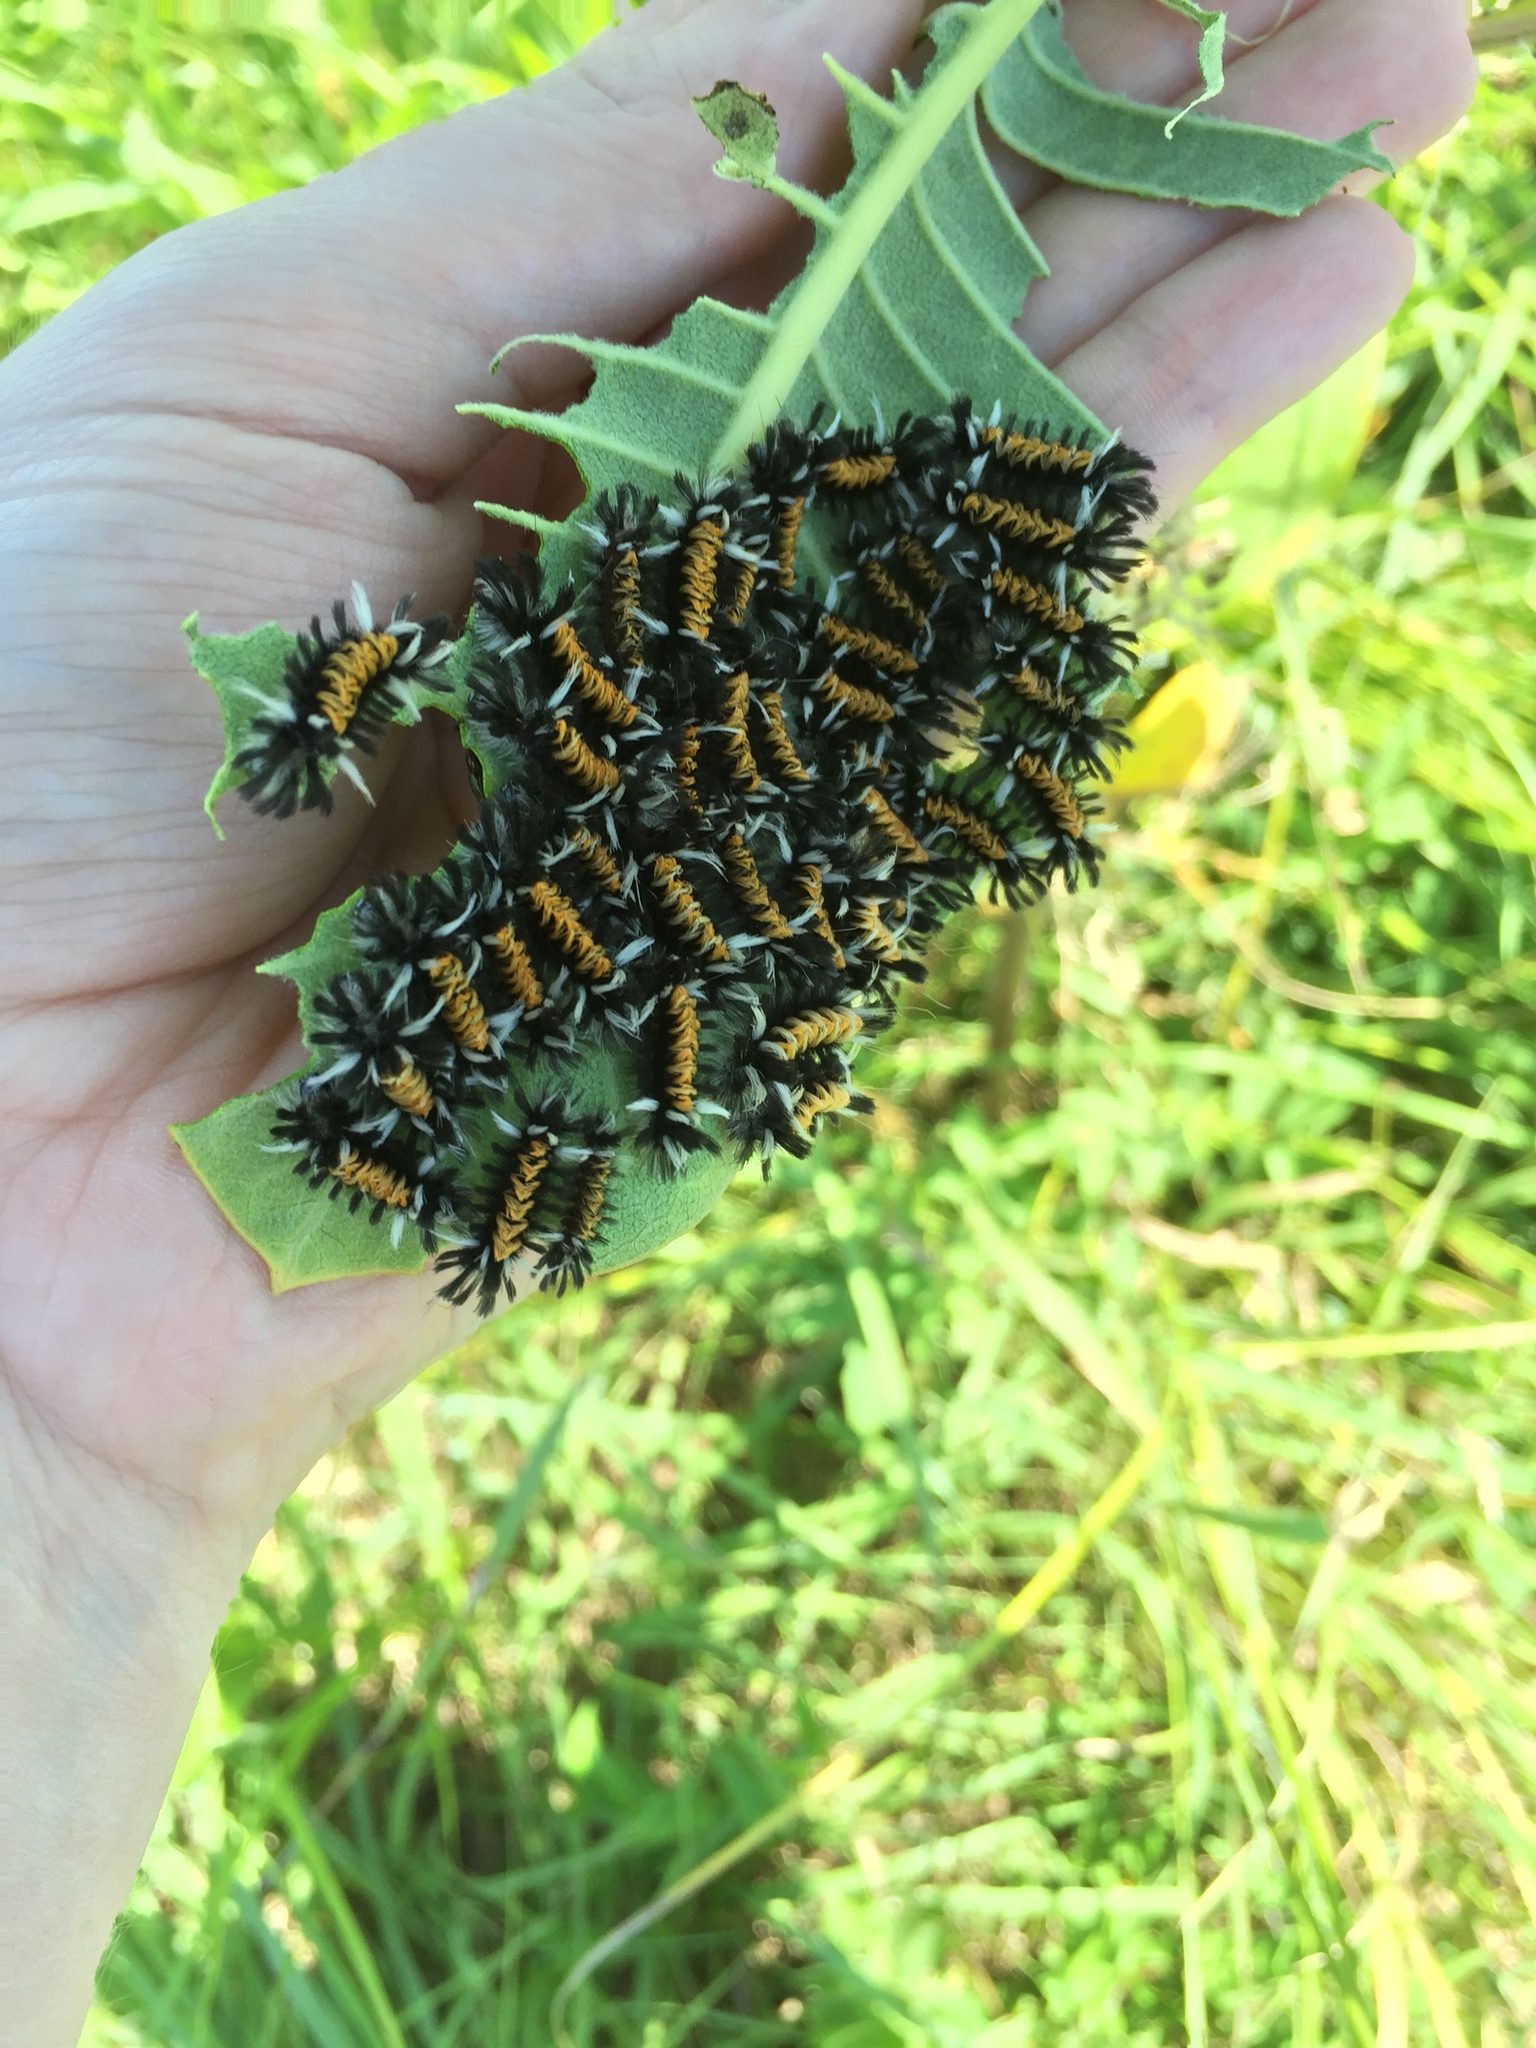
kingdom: Animalia
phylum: Arthropoda
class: Insecta
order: Lepidoptera
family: Erebidae
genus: Euchaetes
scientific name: Euchaetes egle
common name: Milkweed tussock moth
